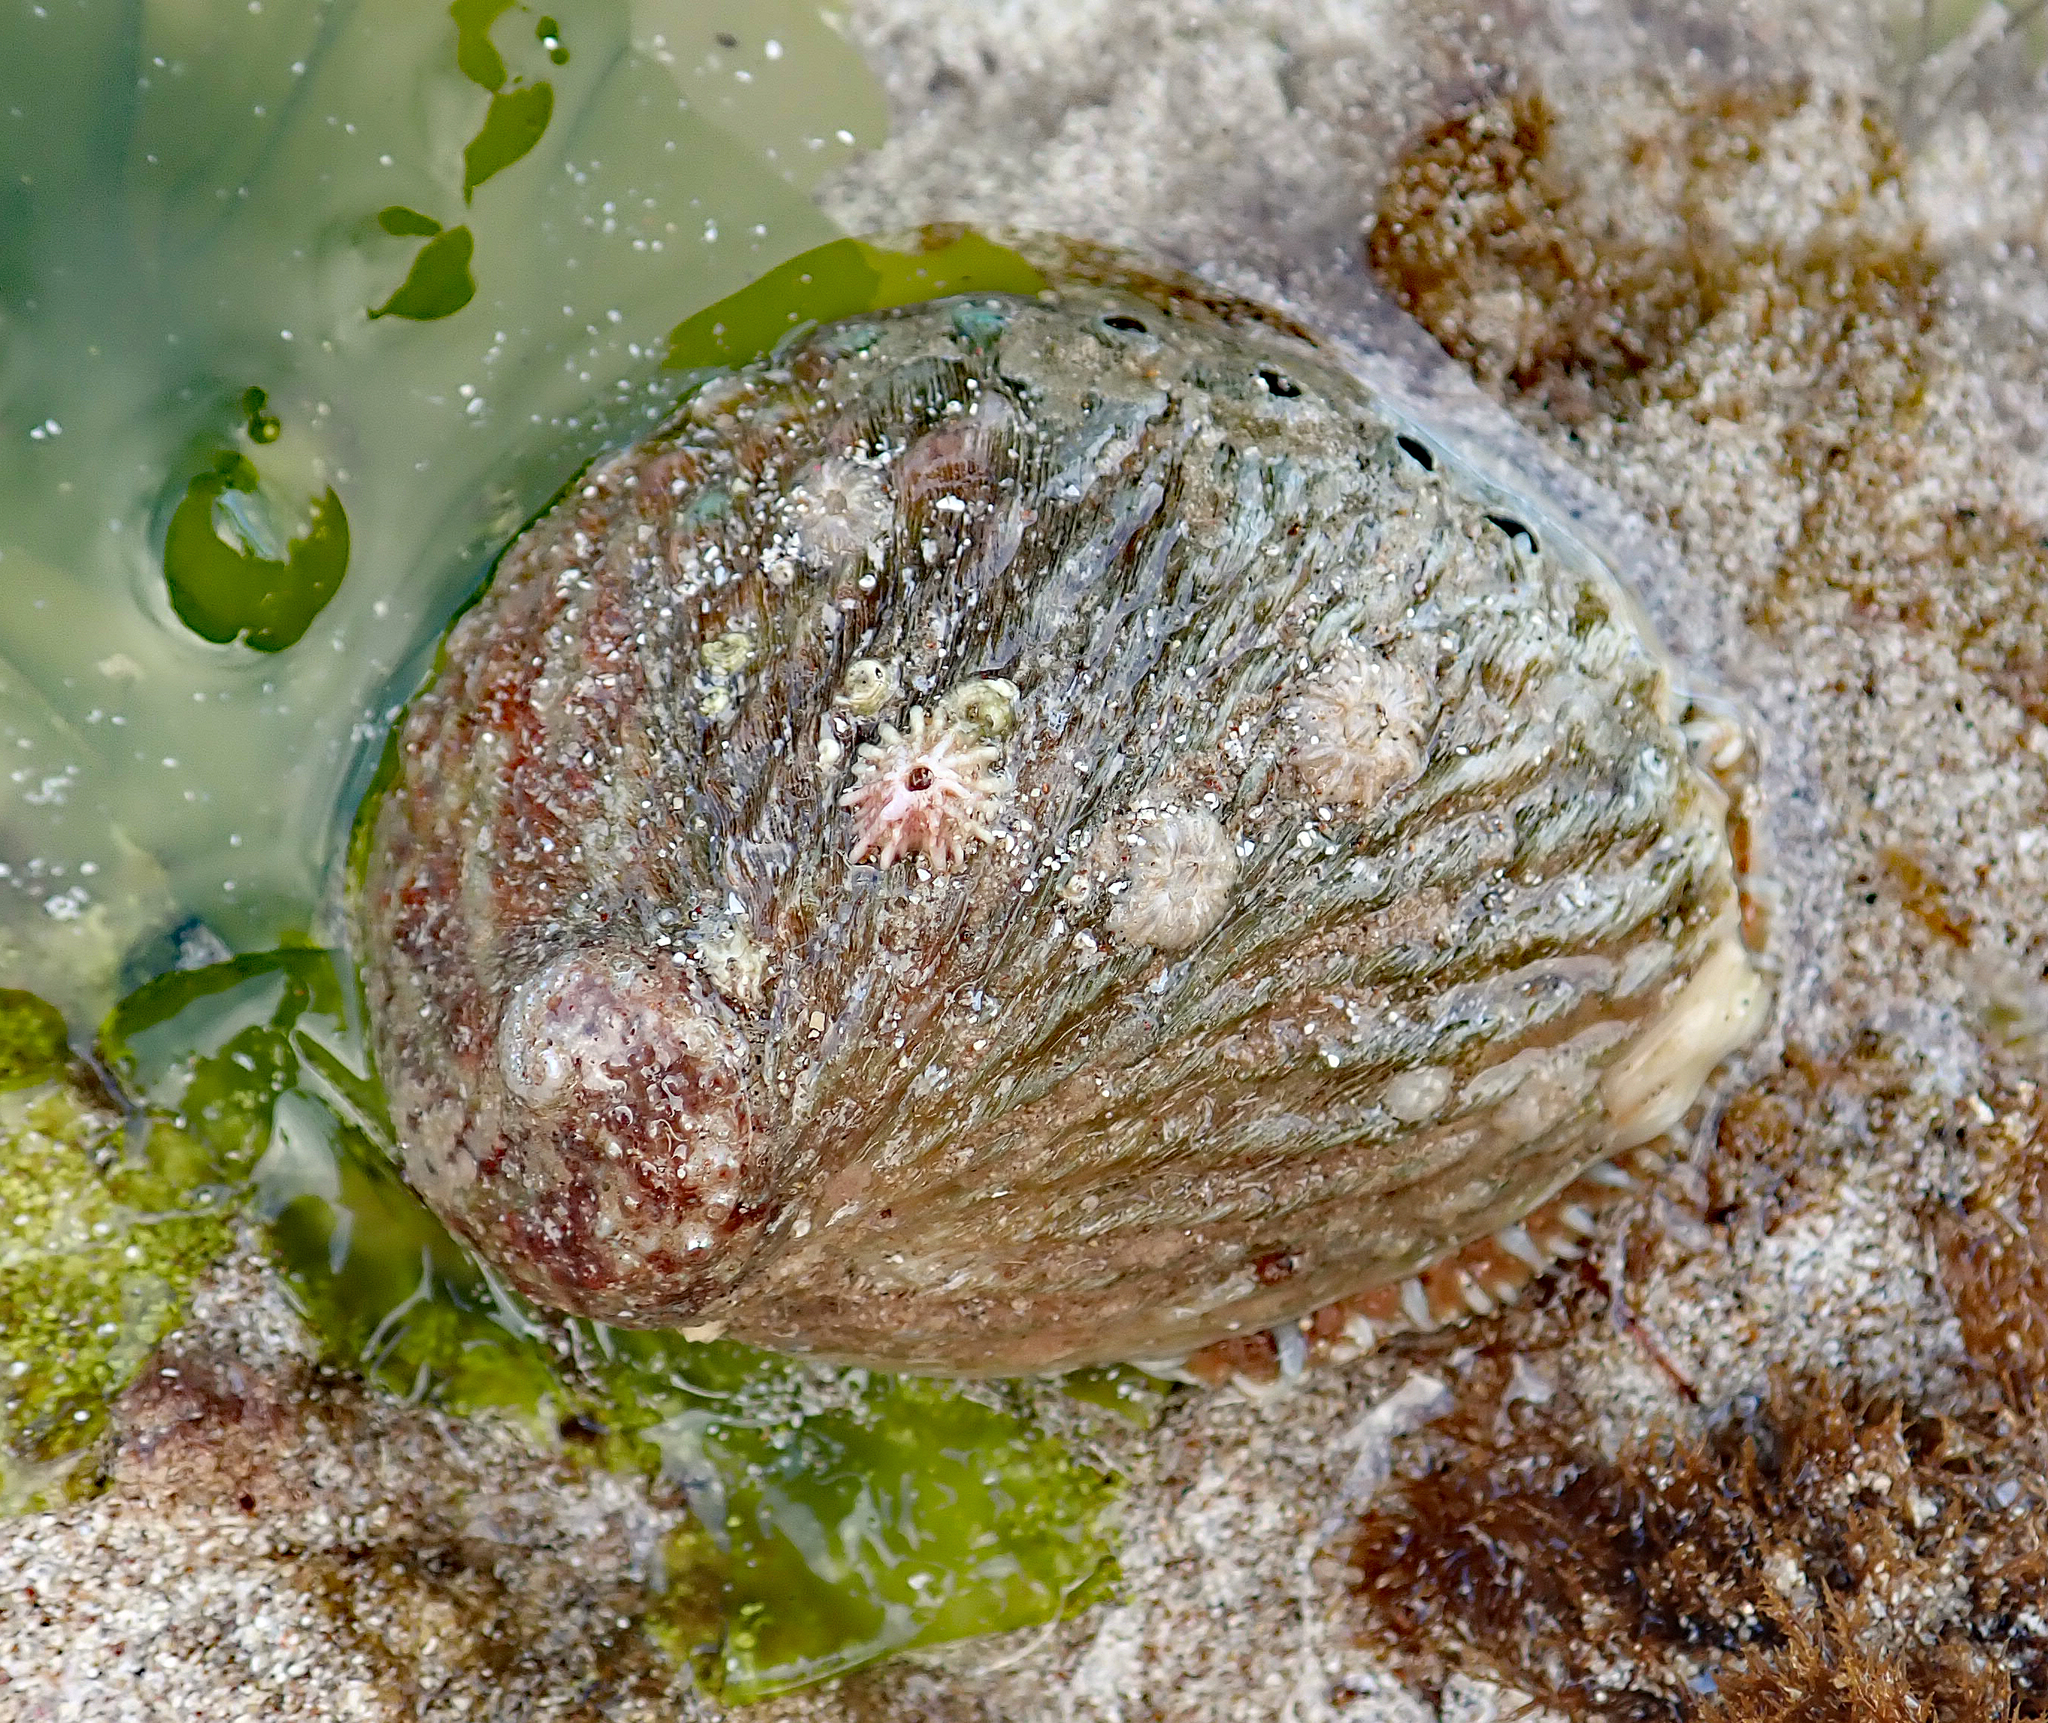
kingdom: Animalia
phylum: Mollusca
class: Gastropoda
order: Lepetellida
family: Haliotidae
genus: Haliotis
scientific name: Haliotis australis
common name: Silver abalone
